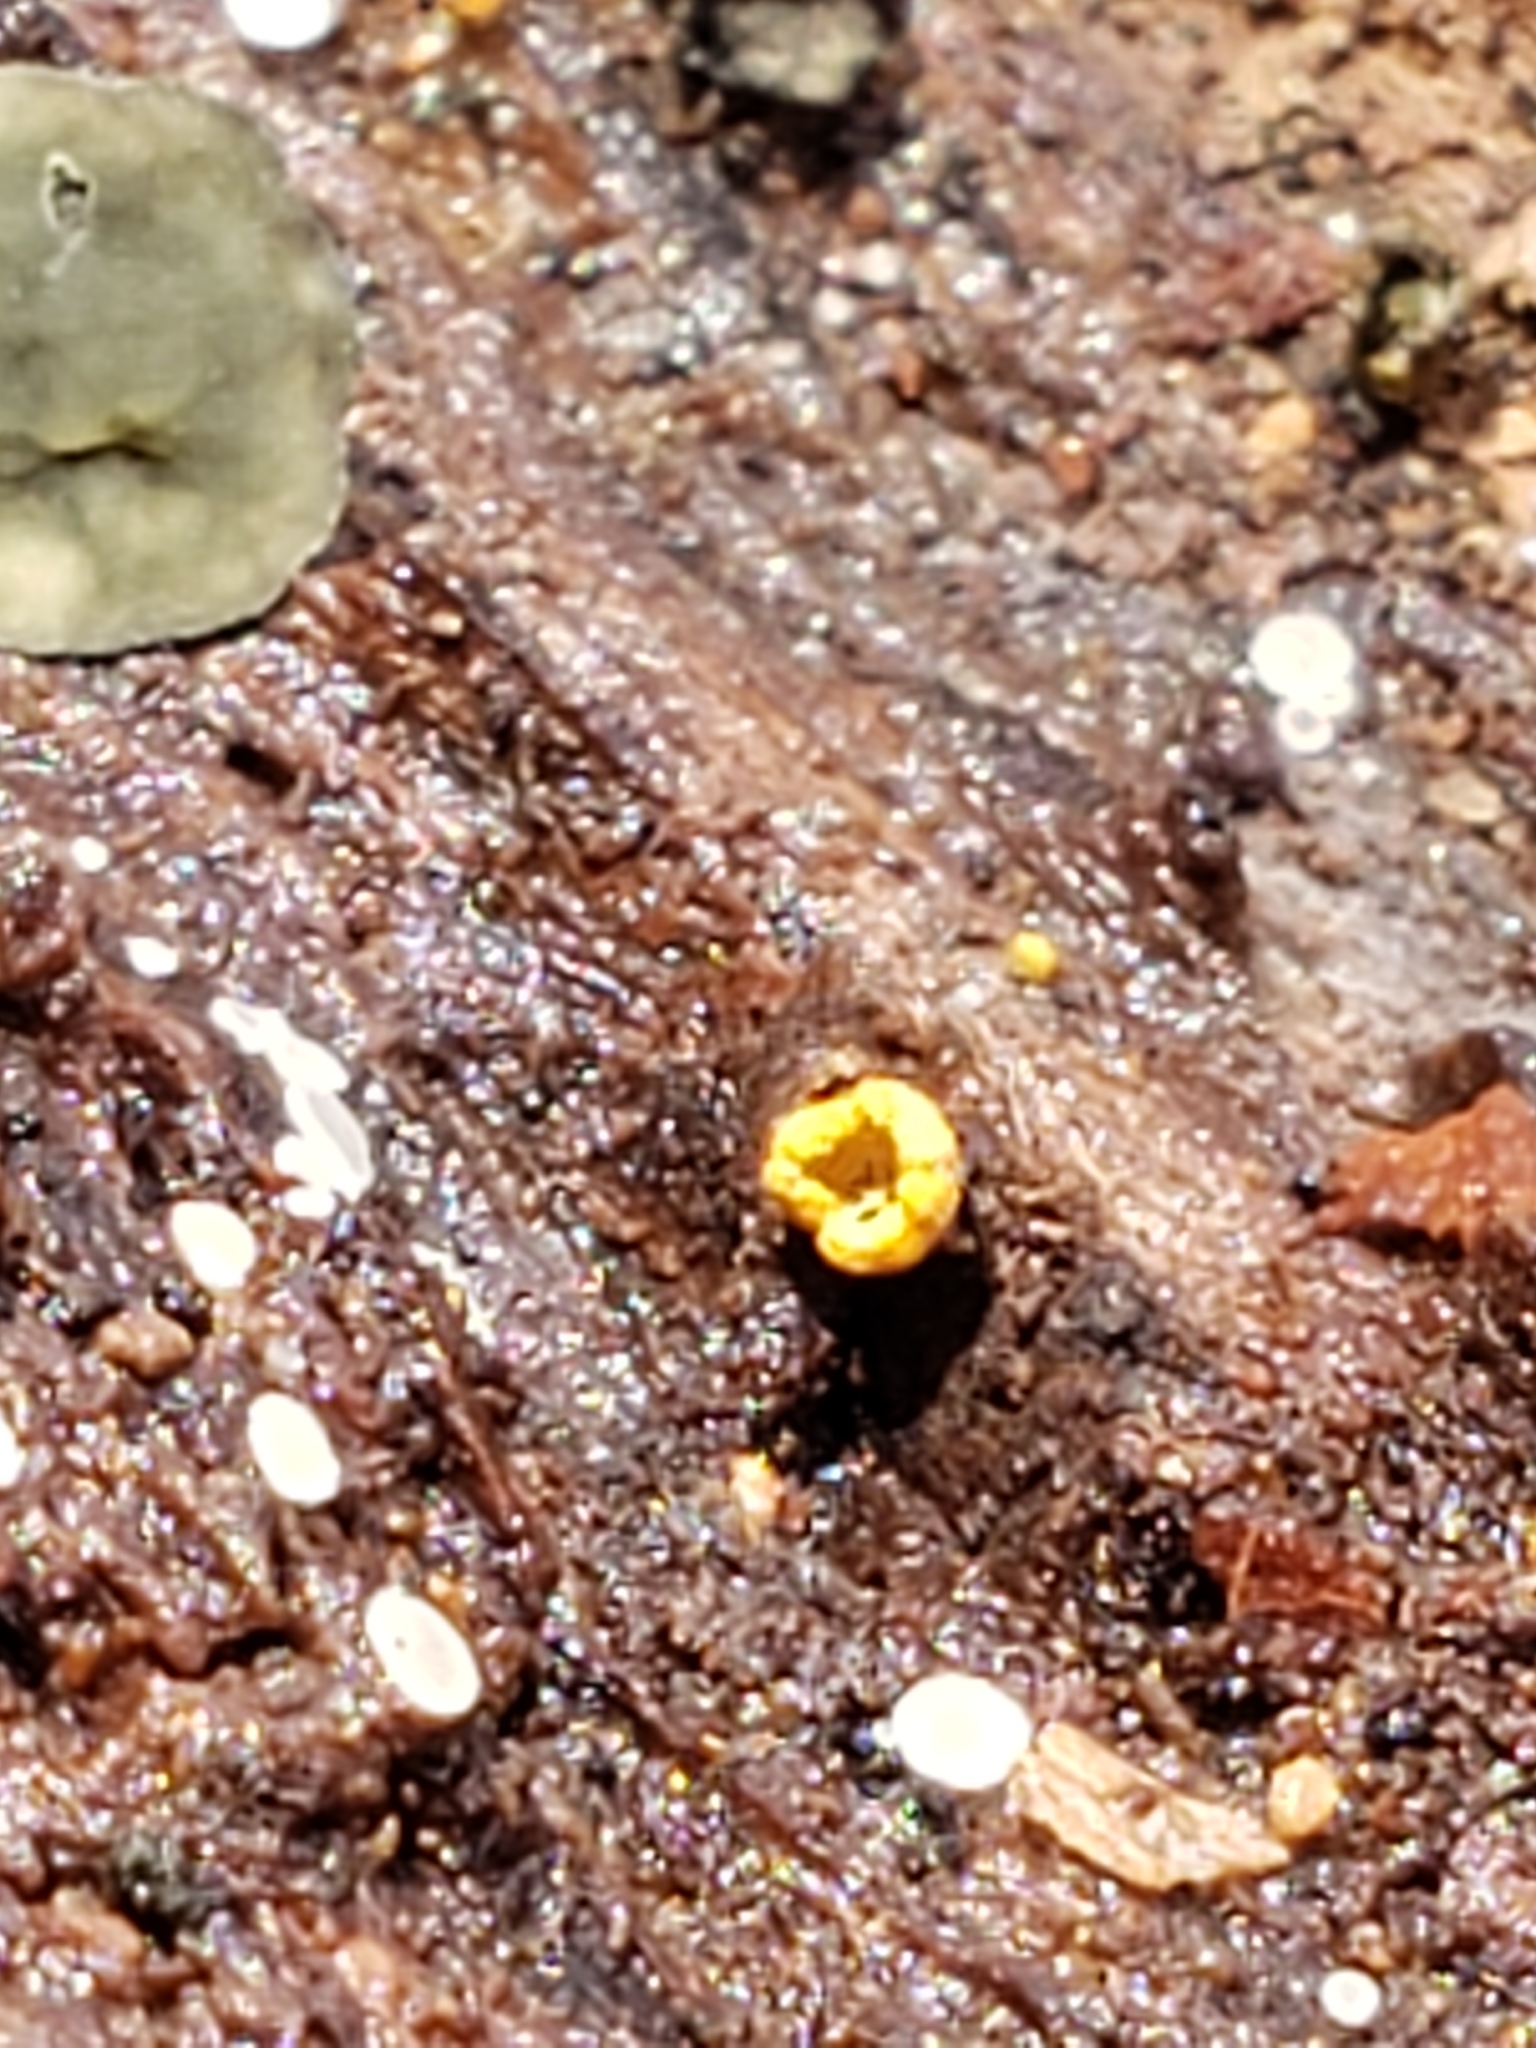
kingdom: Fungi
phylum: Ascomycota
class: Leotiomycetes
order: Helotiales
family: Chlorospleniaceae
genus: Chlorosplenium
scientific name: Chlorosplenium chlora
